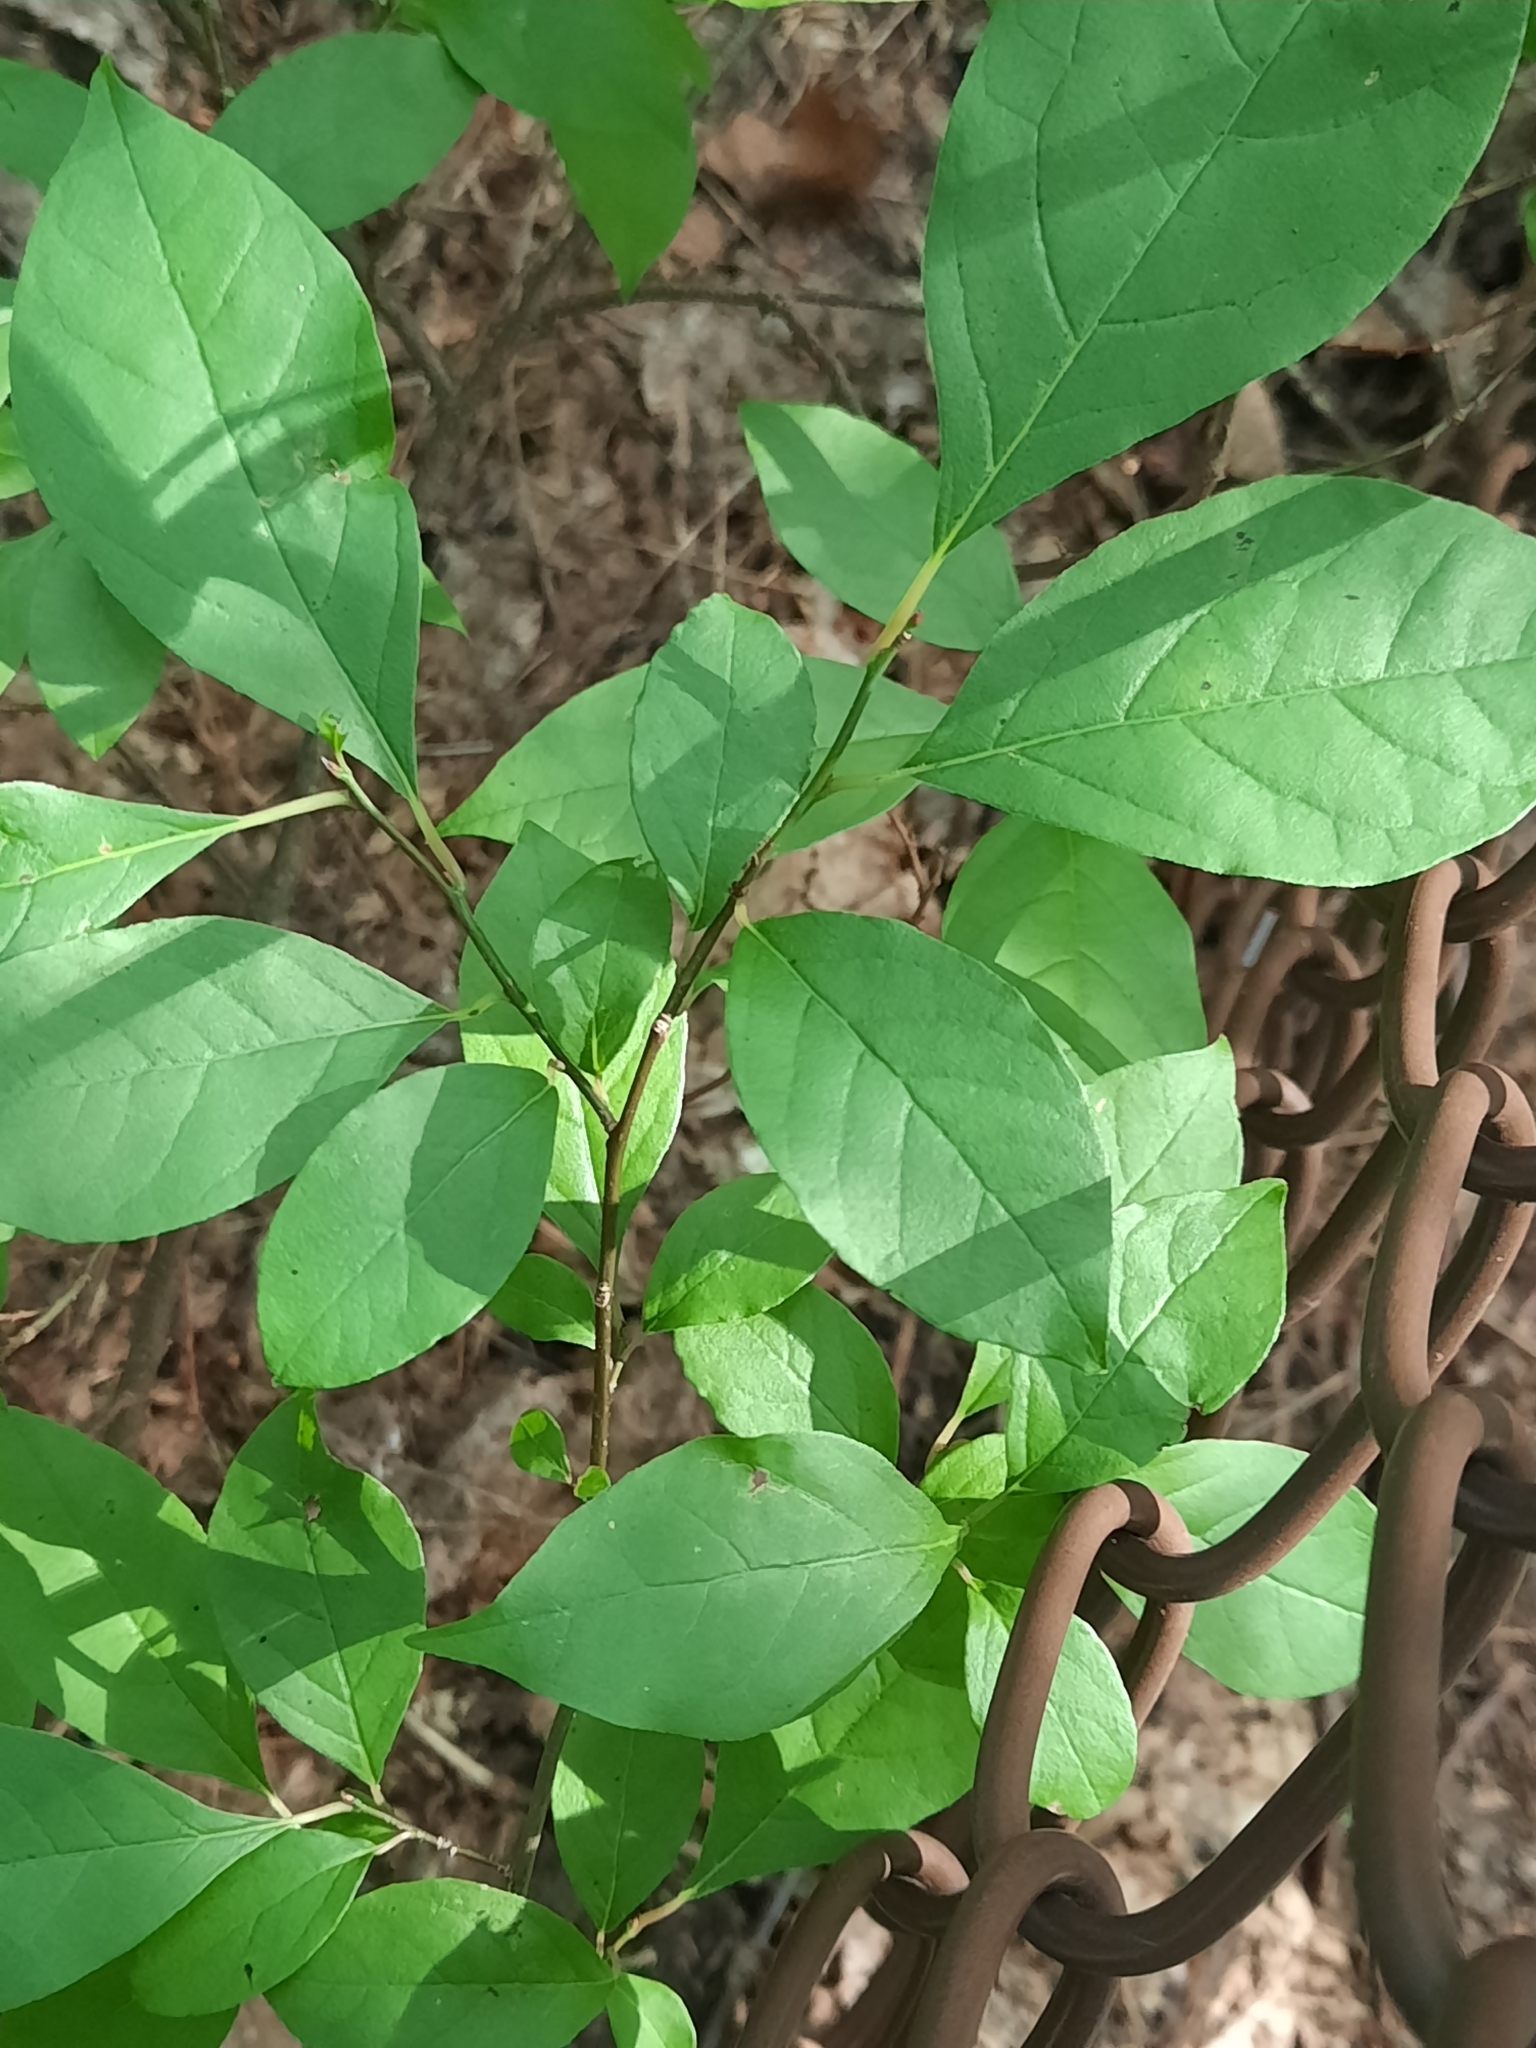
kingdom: Plantae
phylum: Tracheophyta
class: Magnoliopsida
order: Laurales
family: Lauraceae
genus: Lindera
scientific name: Lindera benzoin
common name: Spicebush
